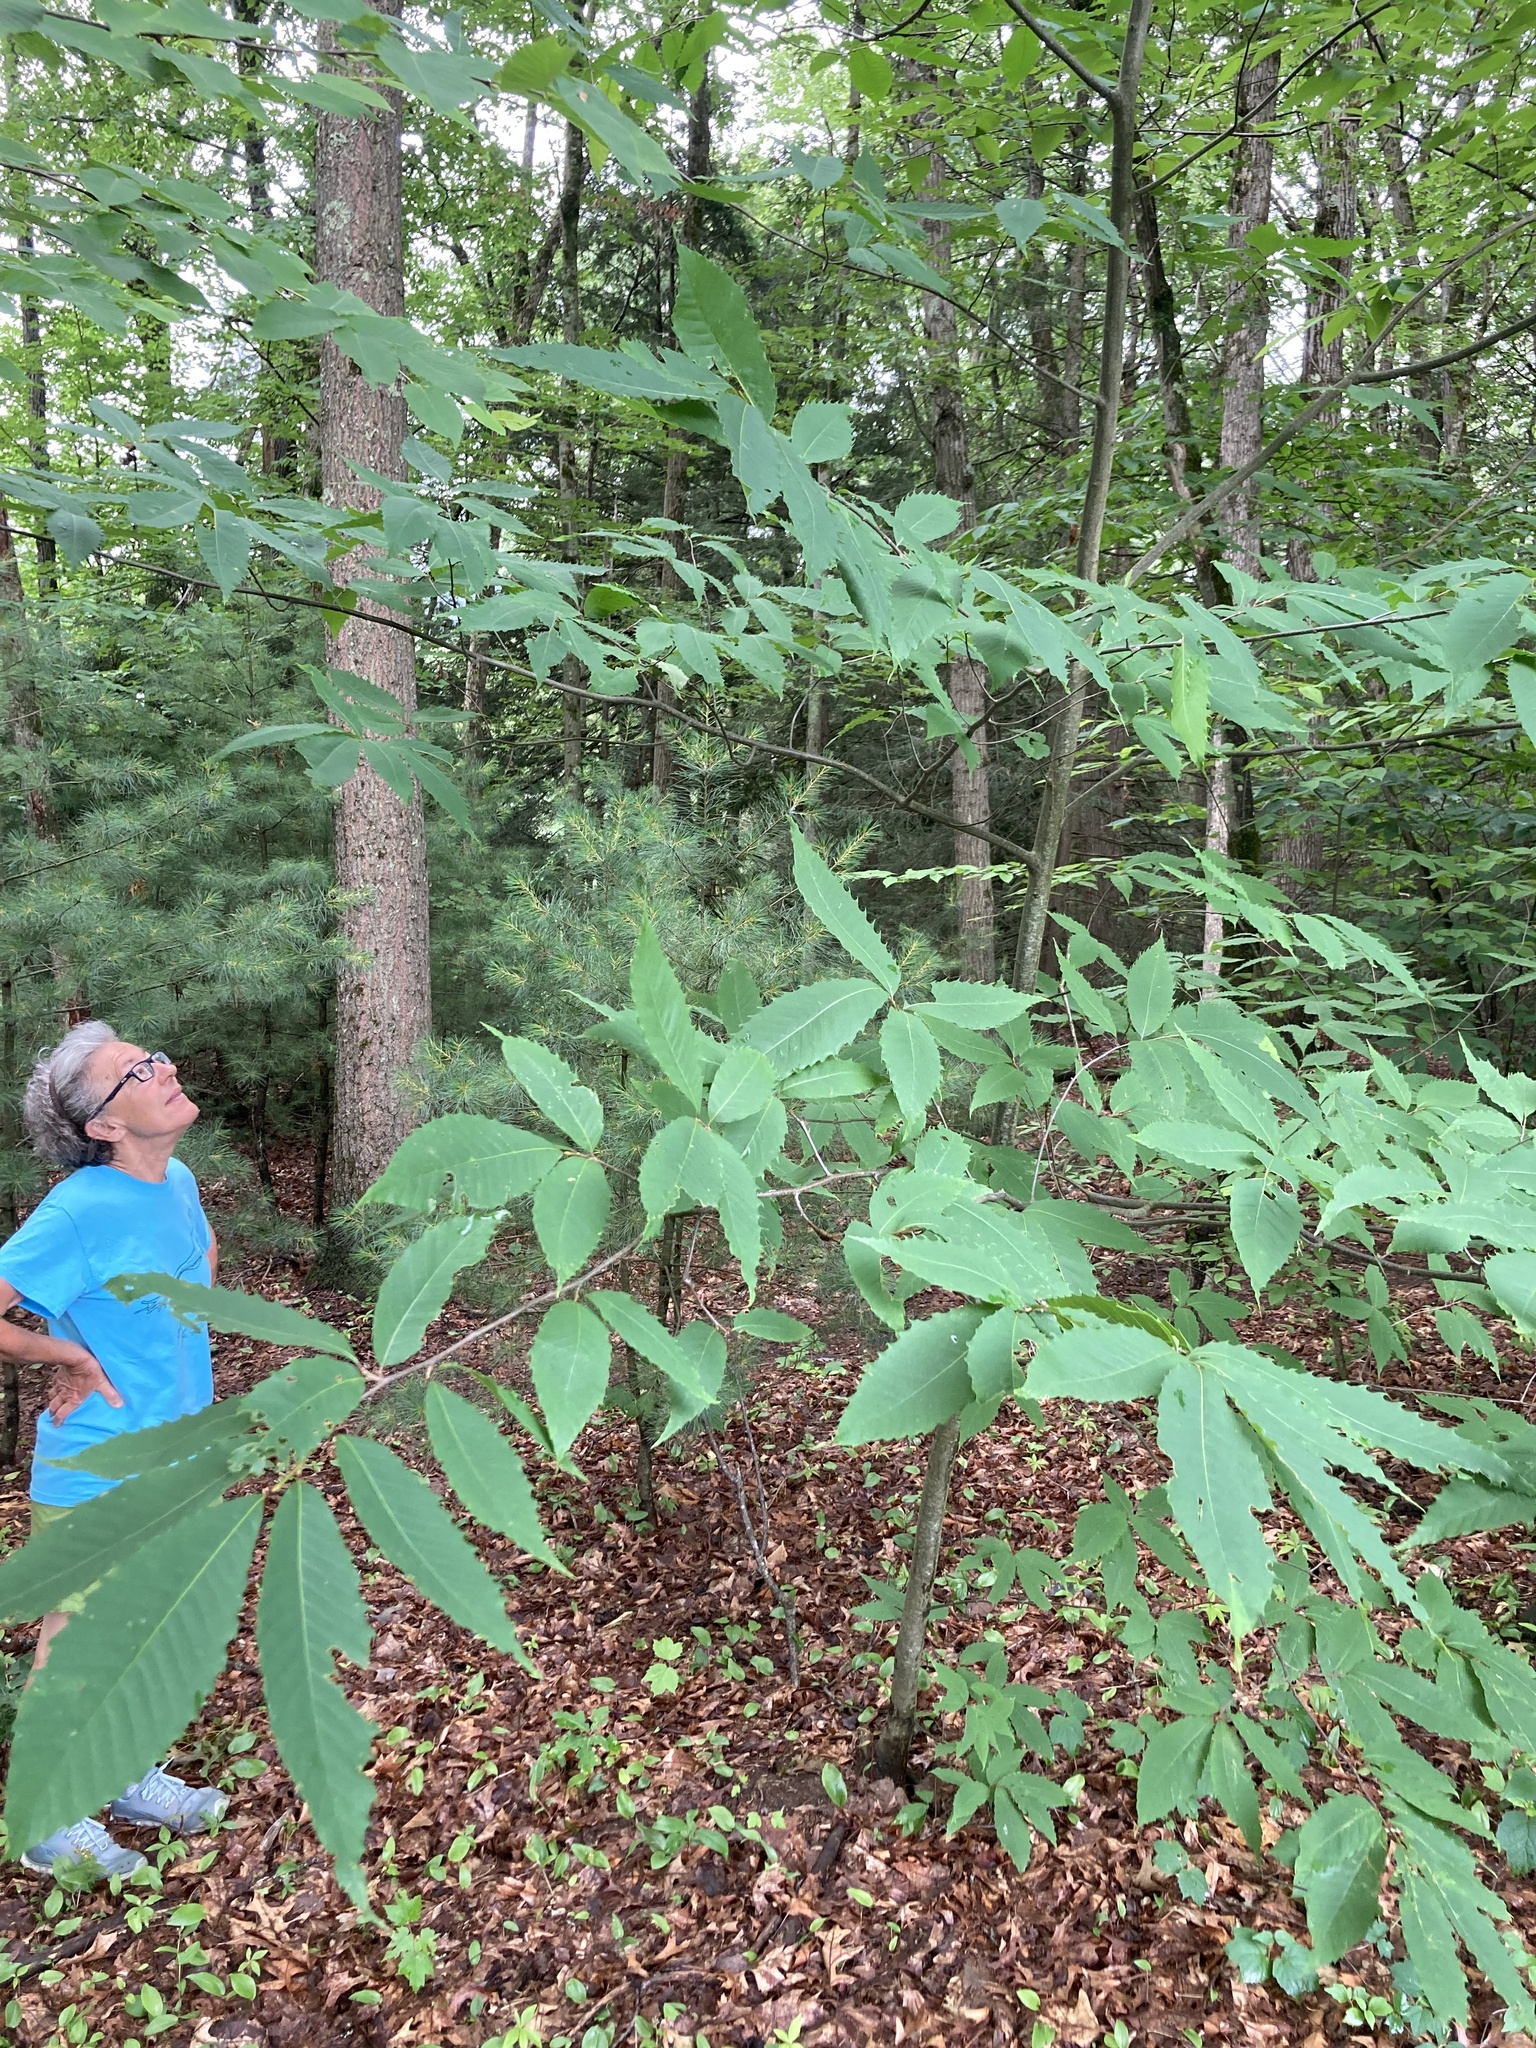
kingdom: Plantae
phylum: Tracheophyta
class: Magnoliopsida
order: Fagales
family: Fagaceae
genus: Castanea
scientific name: Castanea dentata
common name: American chestnut
